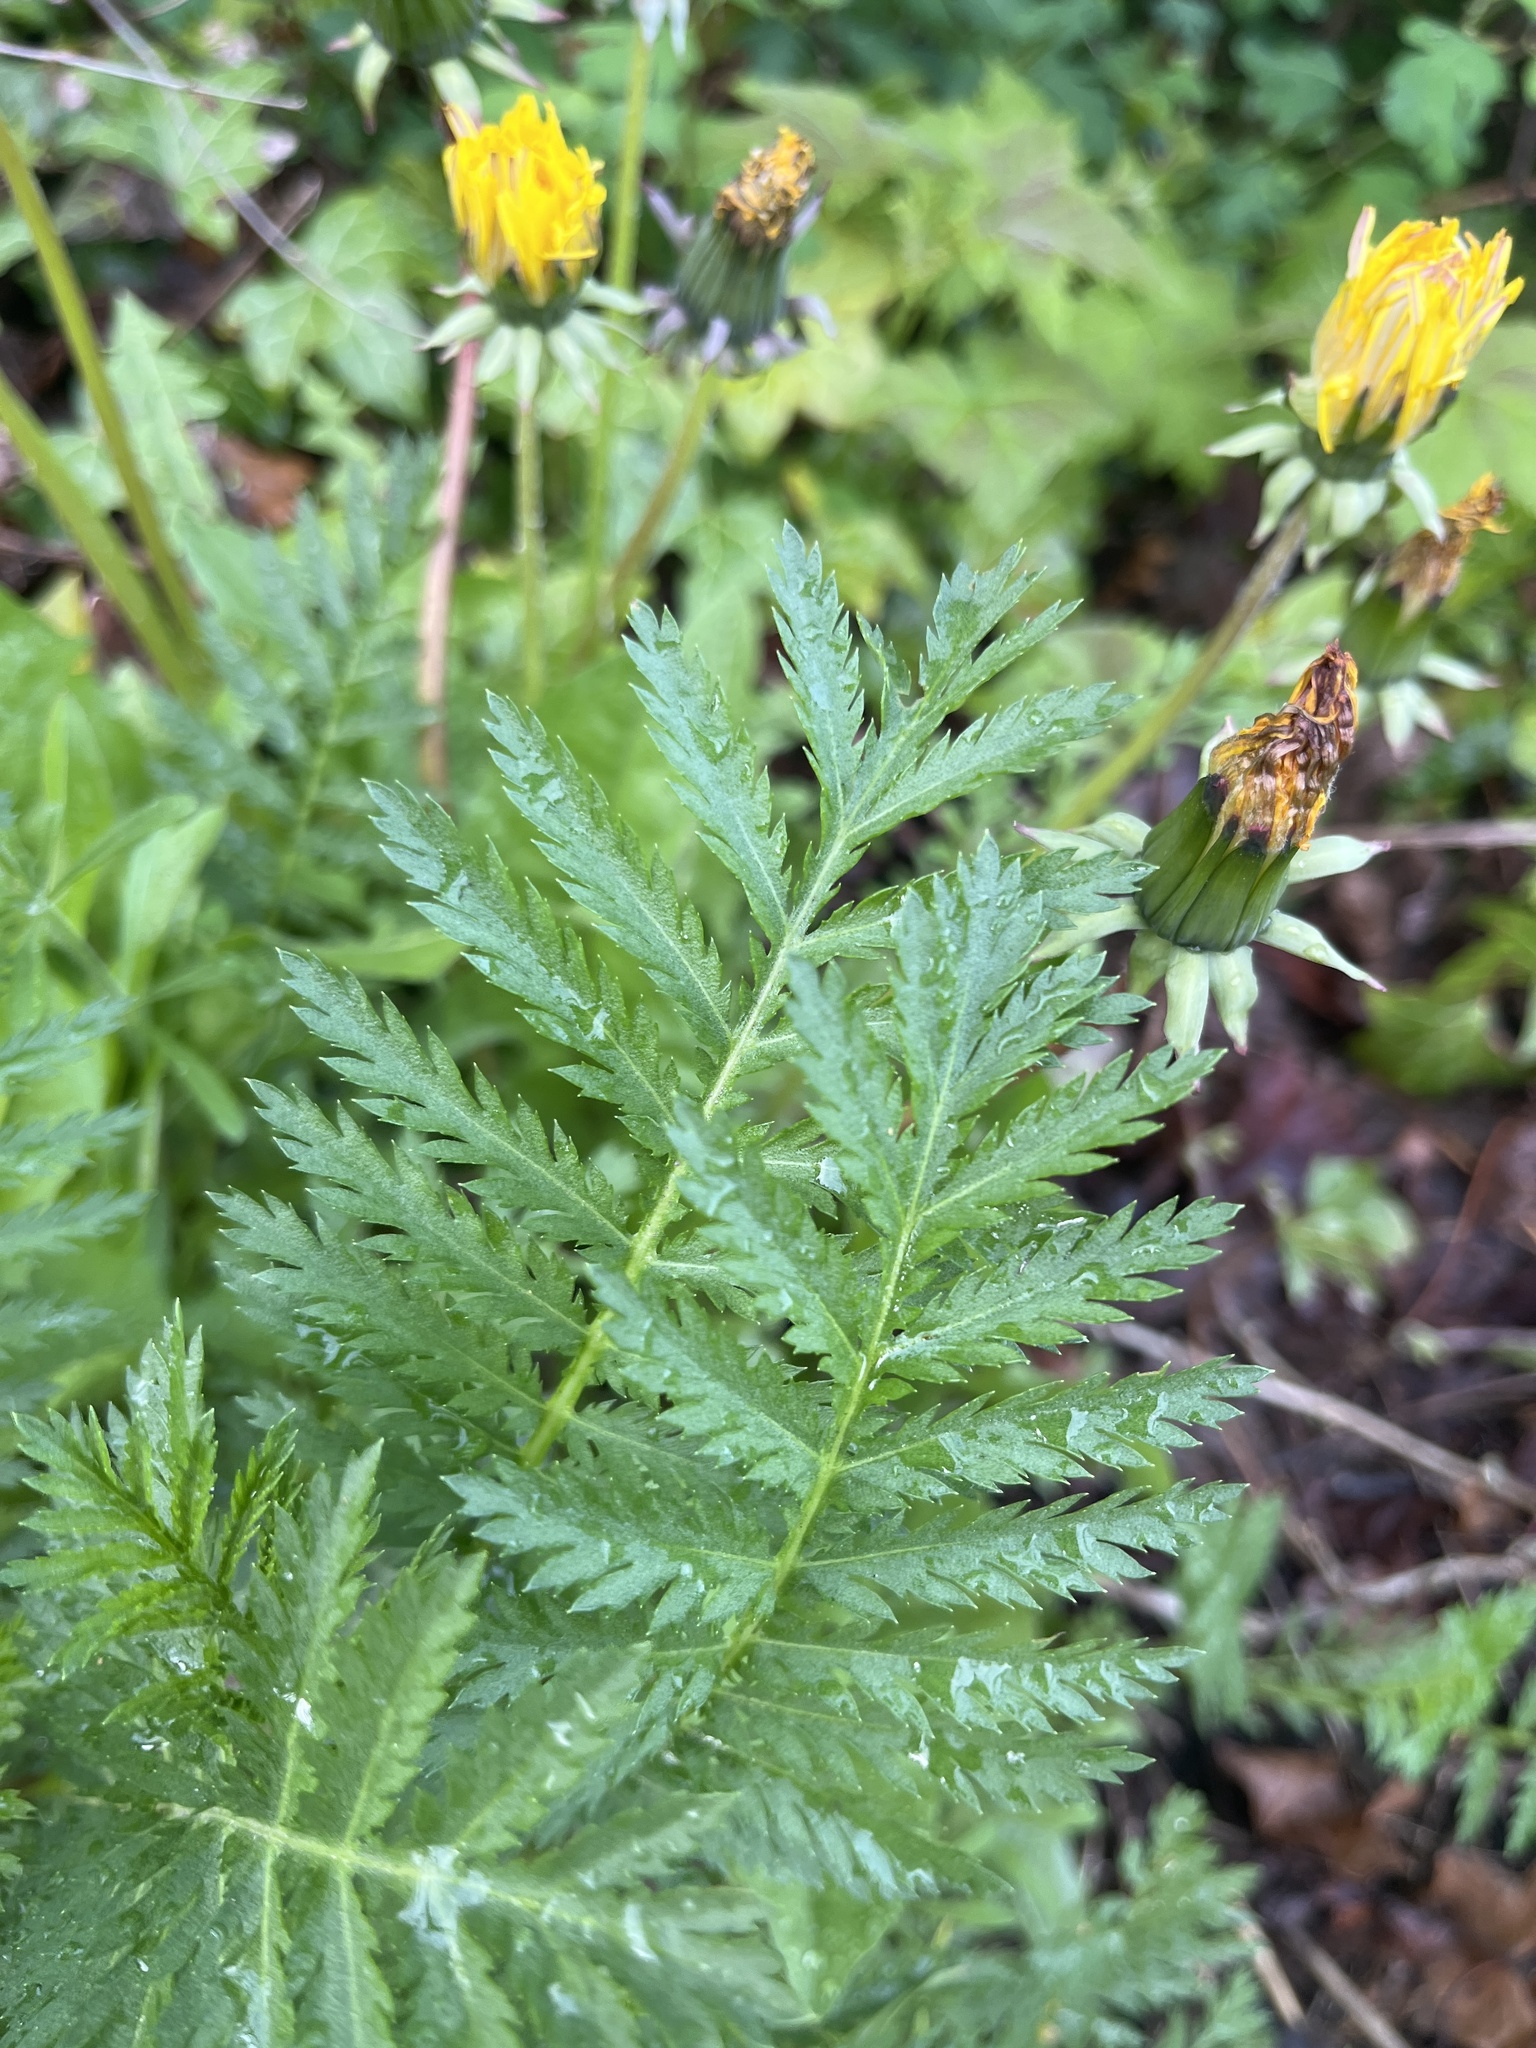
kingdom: Plantae
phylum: Tracheophyta
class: Magnoliopsida
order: Asterales
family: Asteraceae
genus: Tanacetum
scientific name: Tanacetum vulgare
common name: Common tansy
